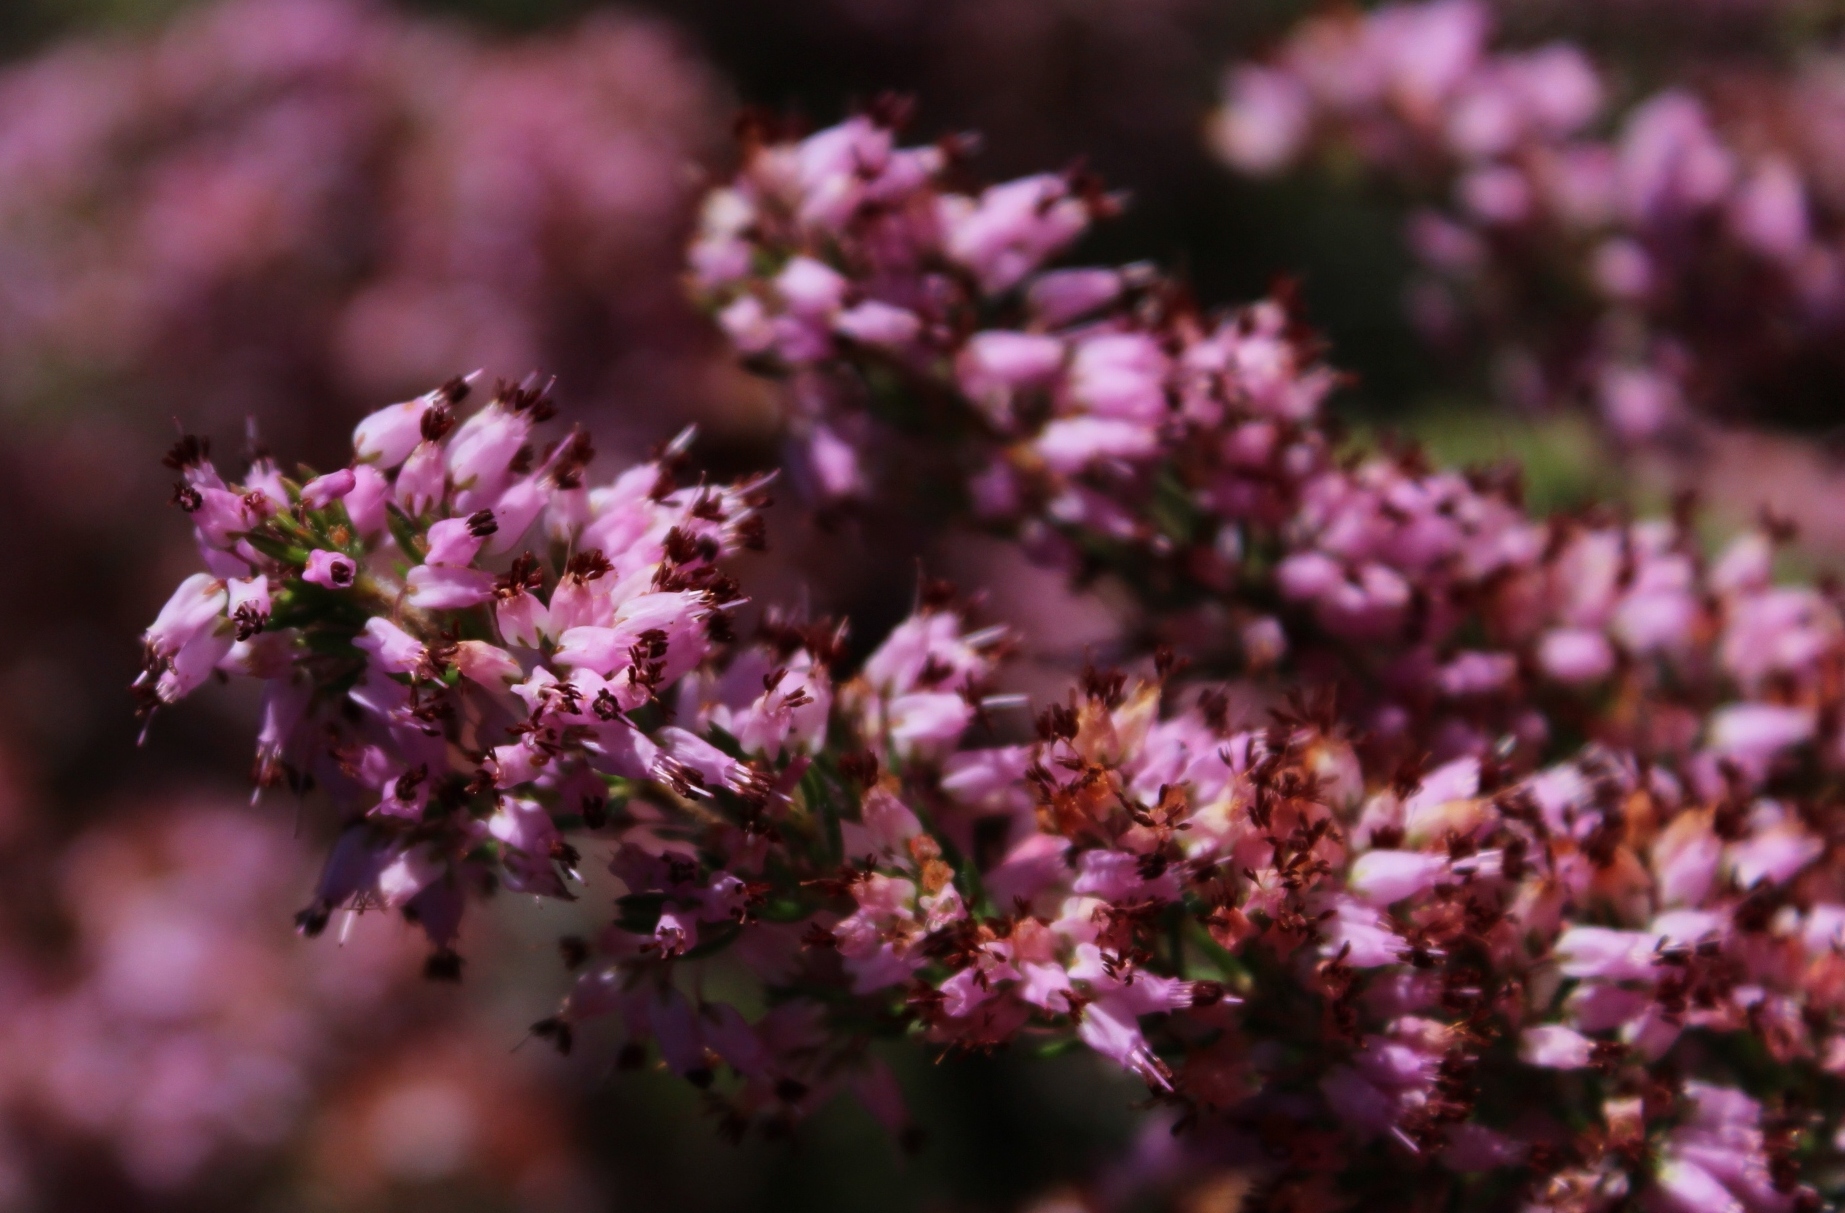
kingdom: Plantae
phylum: Tracheophyta
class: Magnoliopsida
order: Ericales
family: Ericaceae
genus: Erica
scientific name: Erica nudiflora
